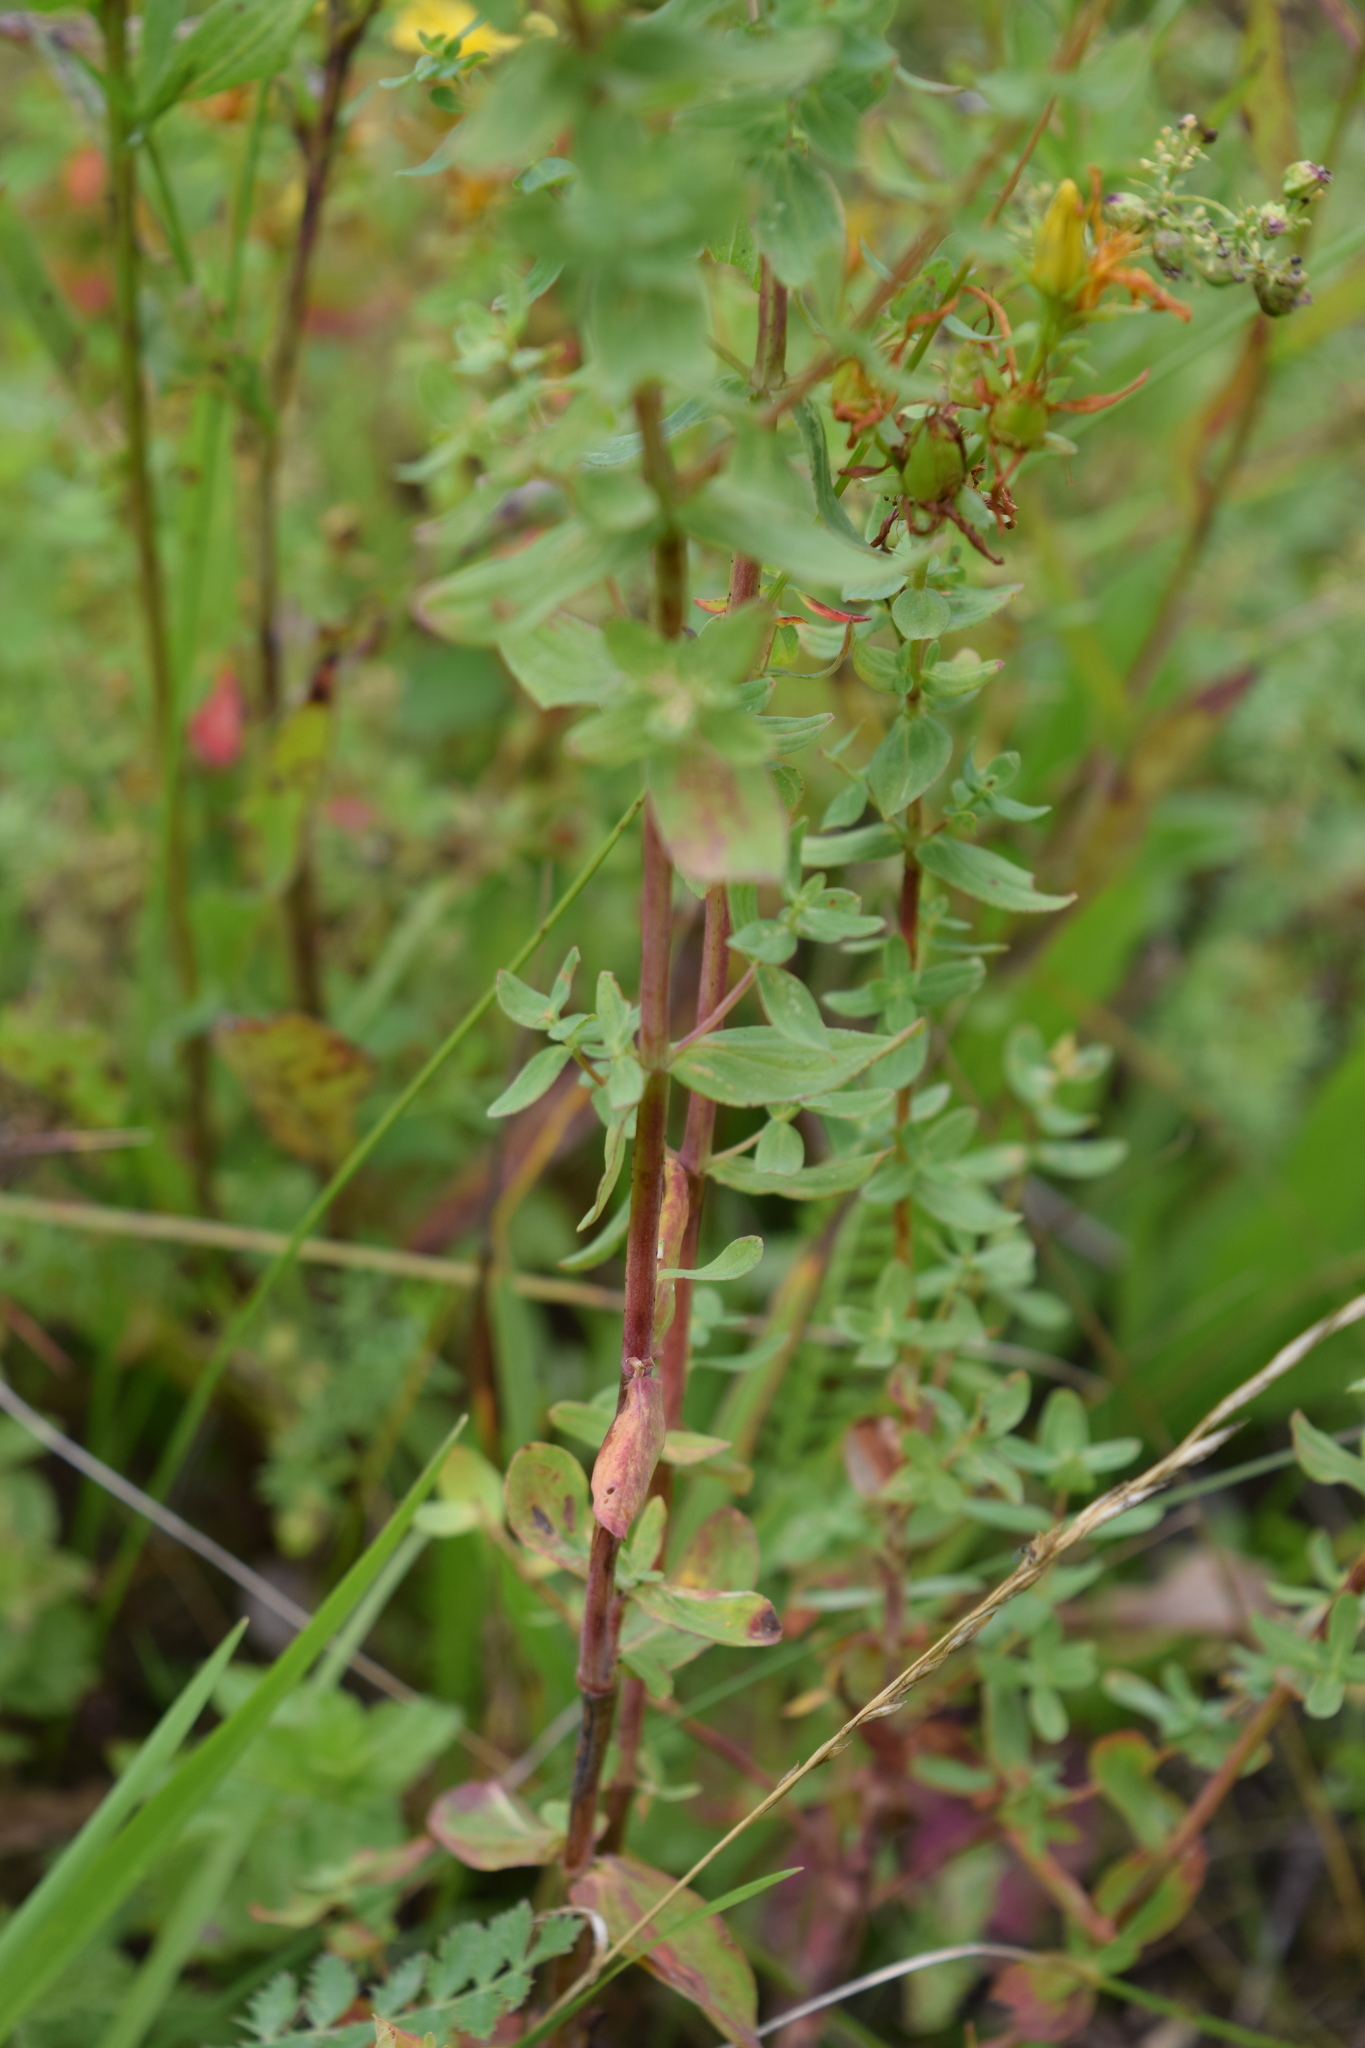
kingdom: Plantae
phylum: Tracheophyta
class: Magnoliopsida
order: Malpighiales
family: Hypericaceae
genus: Hypericum
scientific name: Hypericum perforatum
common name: Common st. johnswort
